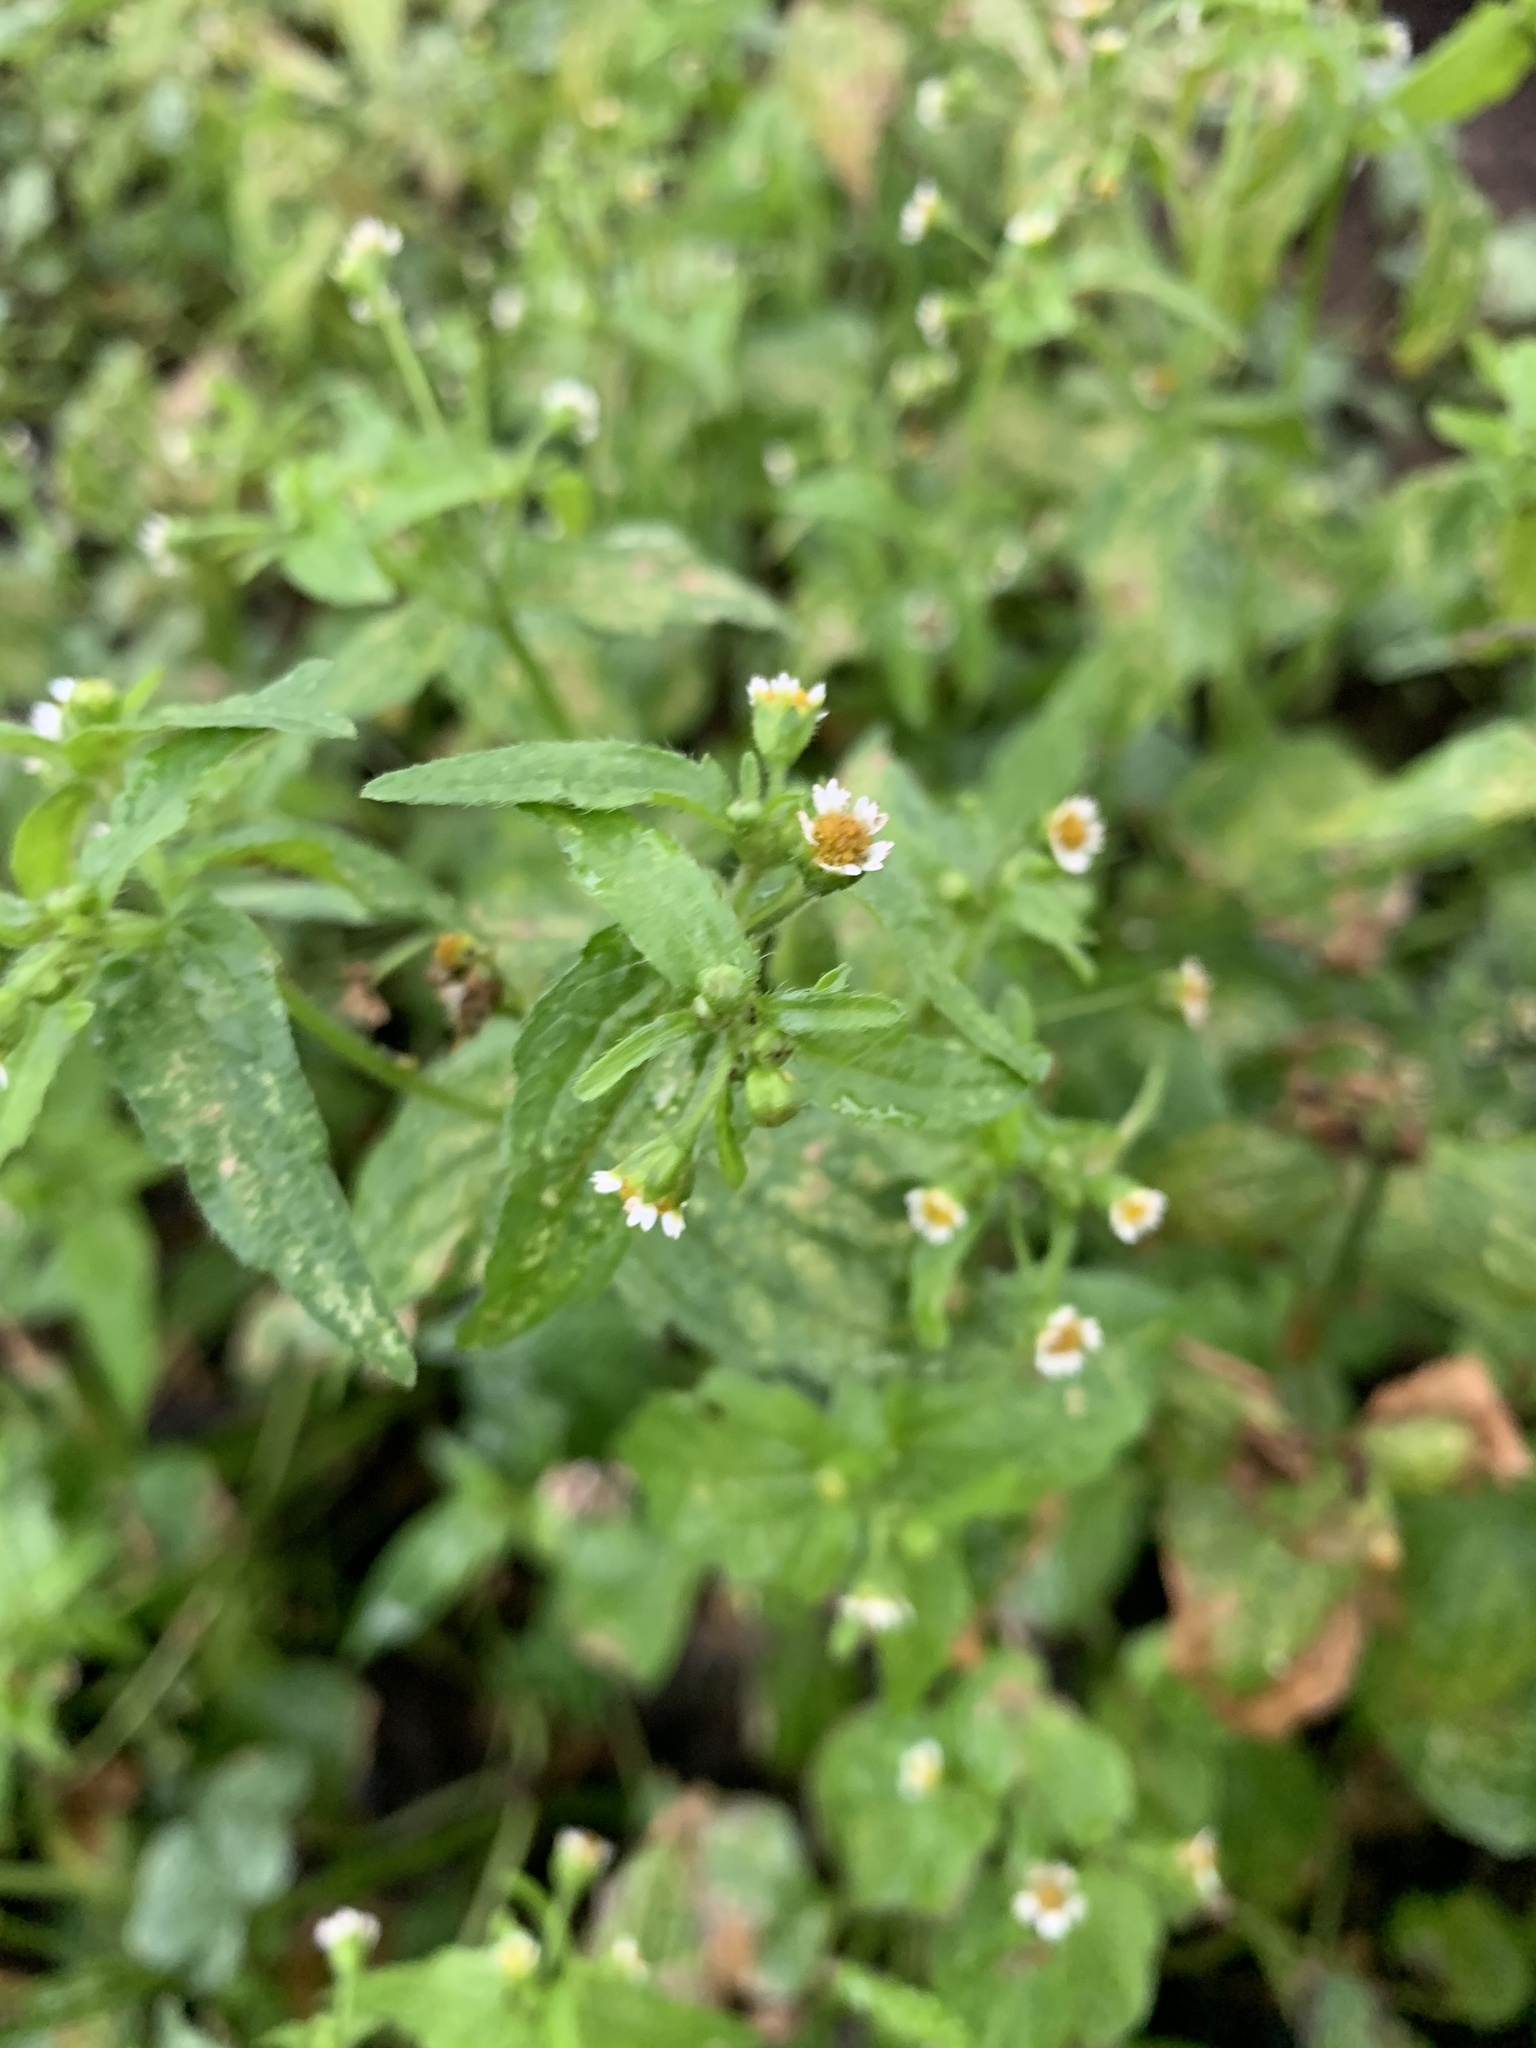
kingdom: Plantae
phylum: Tracheophyta
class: Magnoliopsida
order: Asterales
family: Asteraceae
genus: Galinsoga
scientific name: Galinsoga parviflora
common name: Gallant soldier
